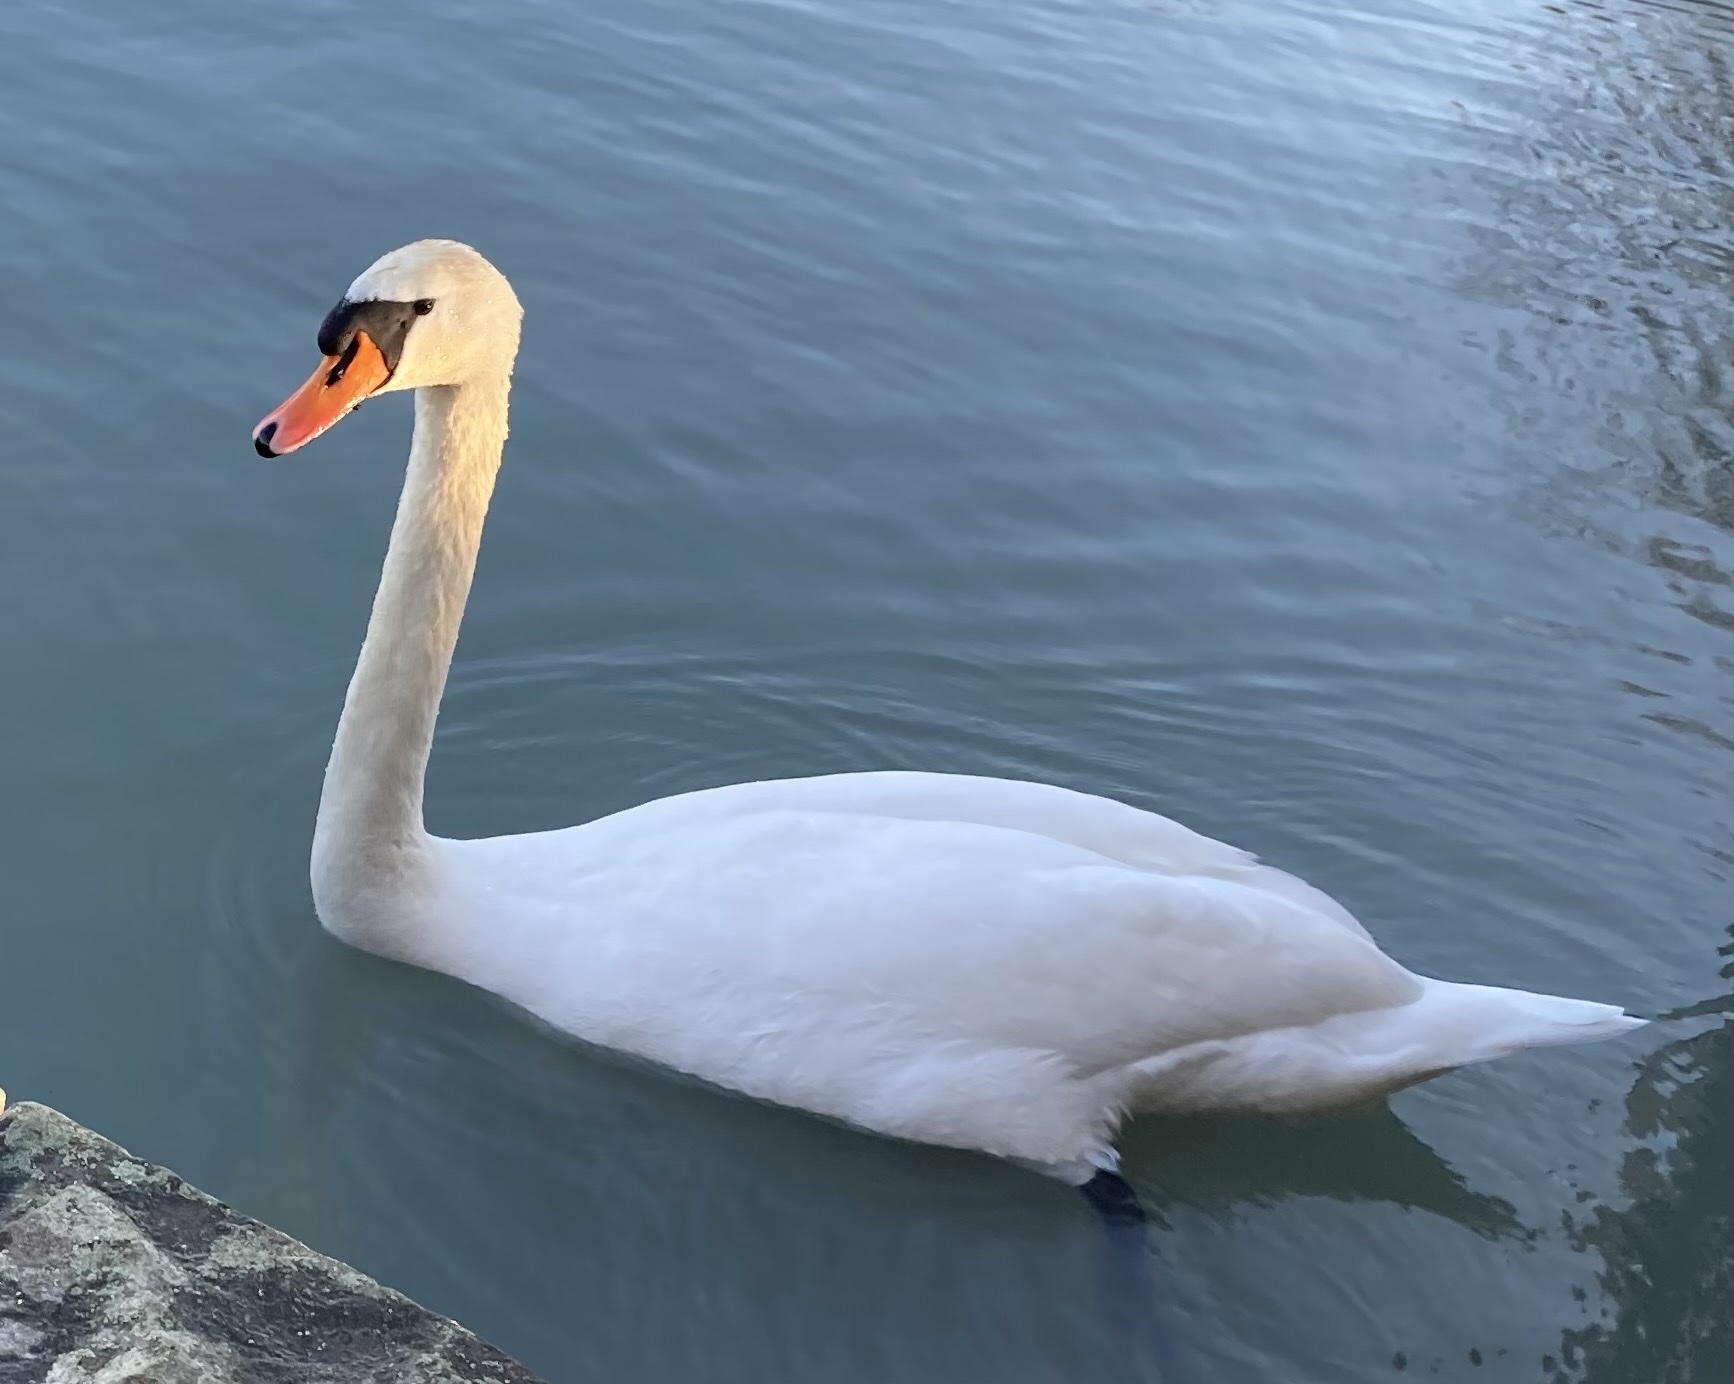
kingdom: Animalia
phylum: Chordata
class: Aves
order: Anseriformes
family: Anatidae
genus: Cygnus
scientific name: Cygnus olor
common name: Mute swan
